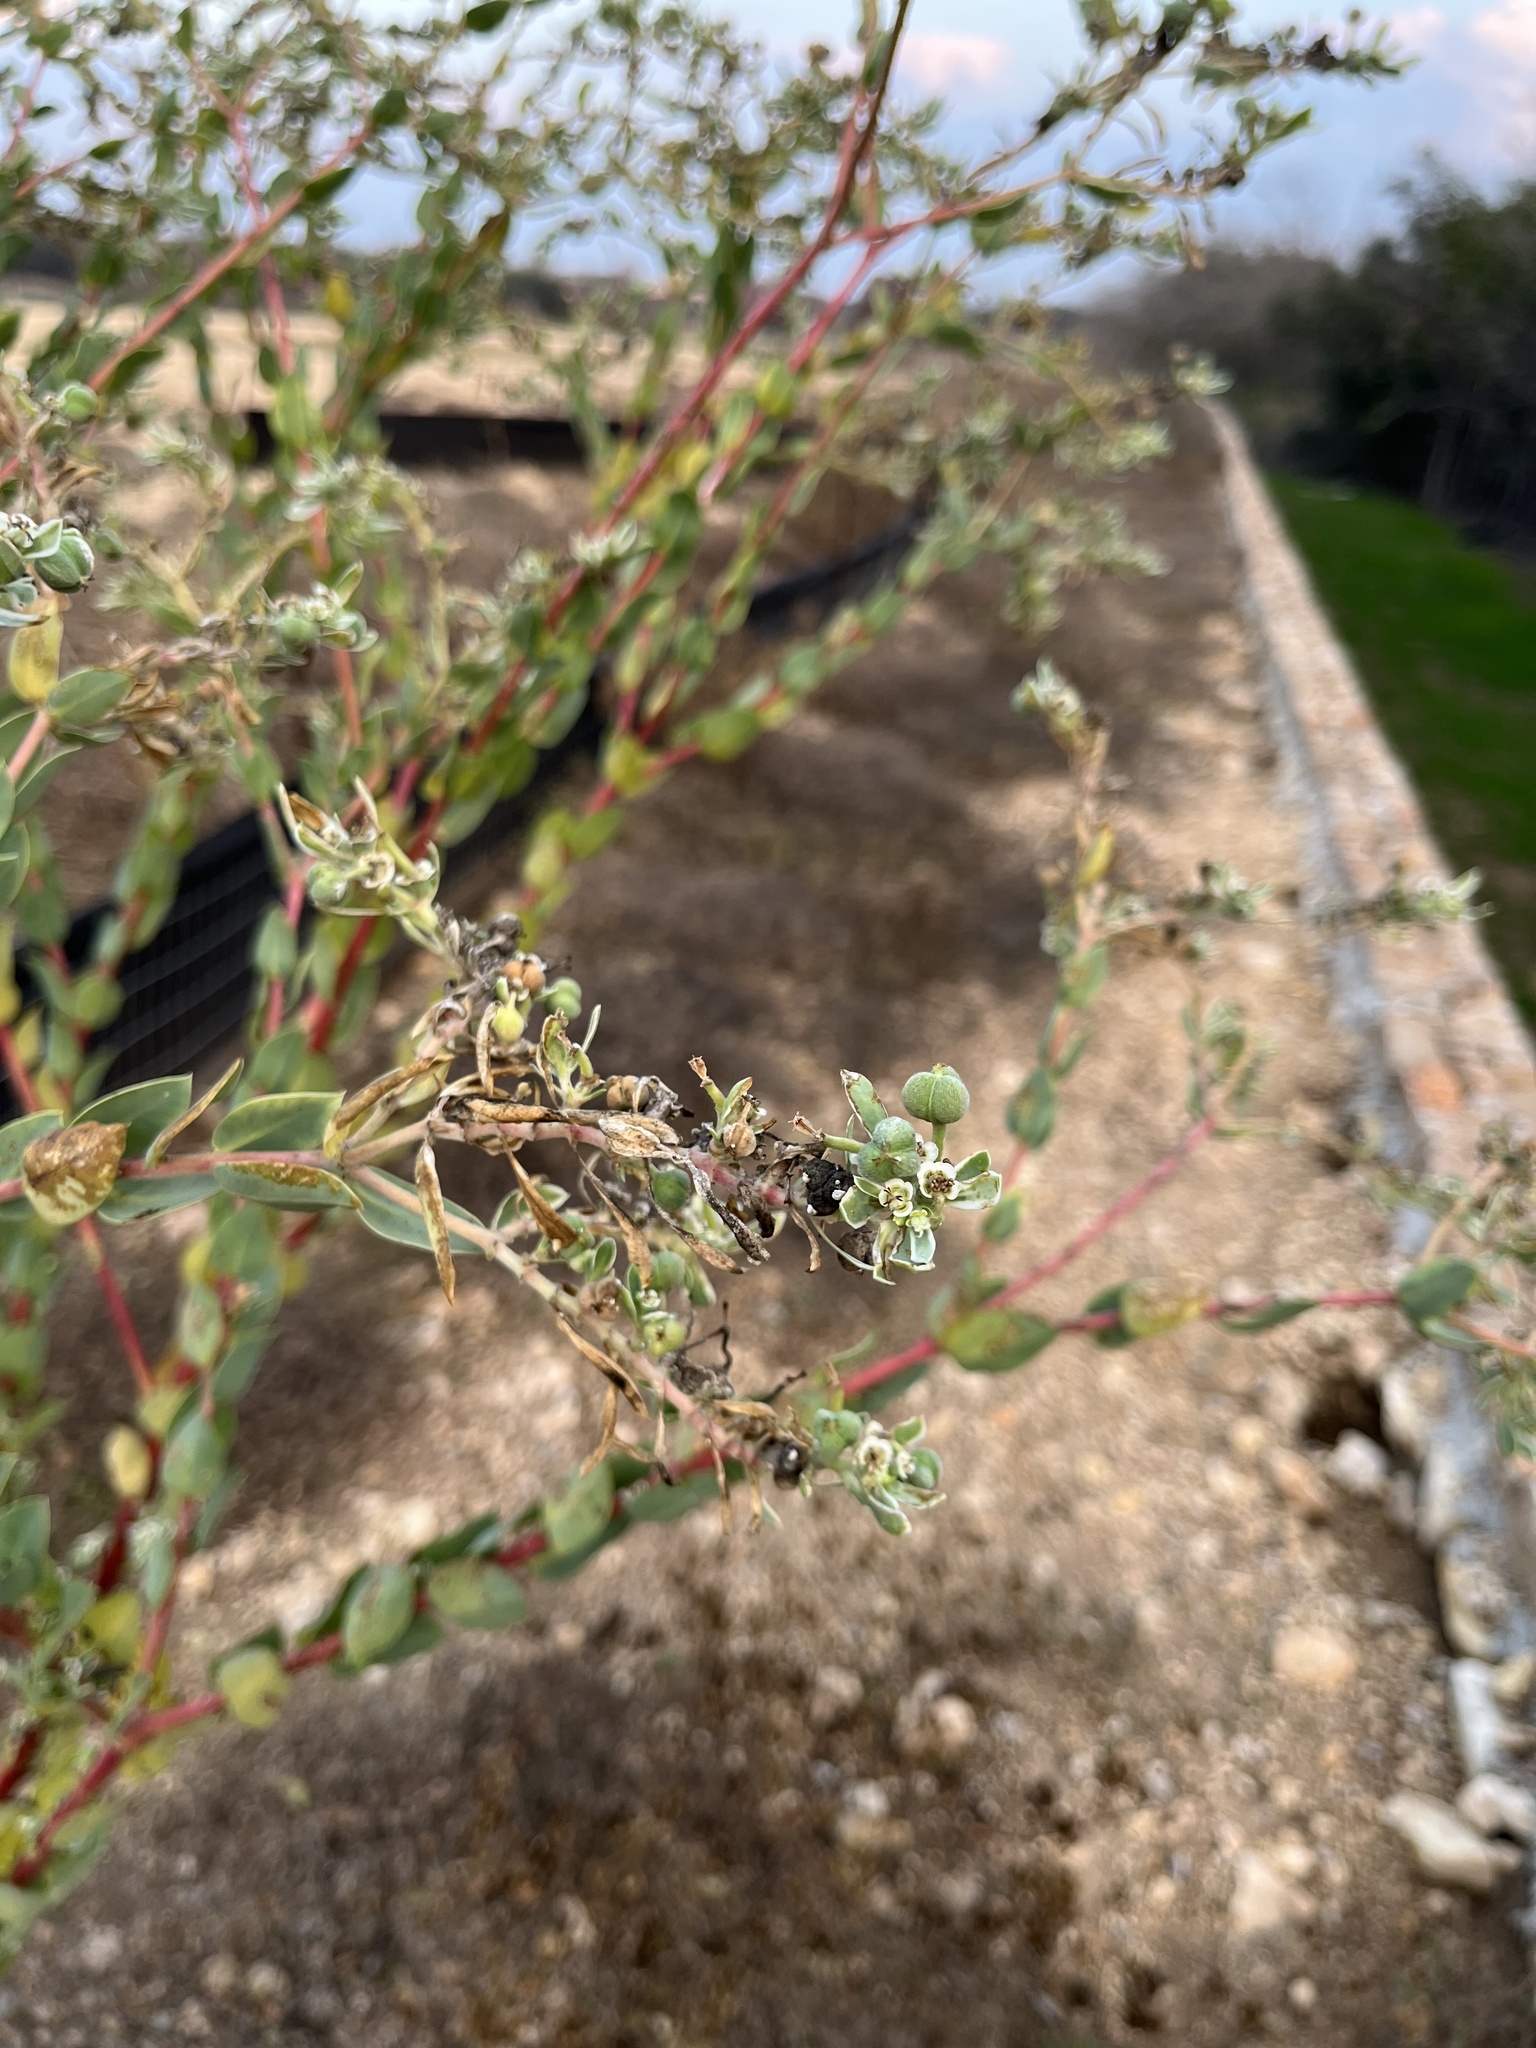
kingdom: Plantae
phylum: Tracheophyta
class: Magnoliopsida
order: Malpighiales
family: Euphorbiaceae
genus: Euphorbia
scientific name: Euphorbia marginata
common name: Ghostweed
